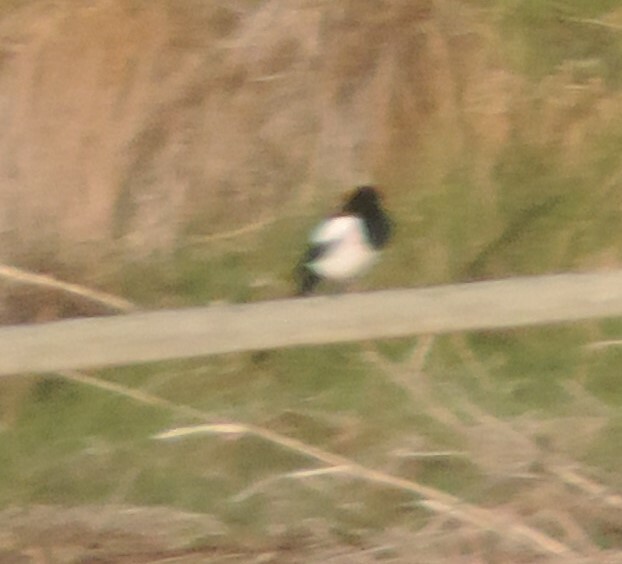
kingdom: Animalia
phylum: Chordata
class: Aves
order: Passeriformes
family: Corvidae
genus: Pica
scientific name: Pica hudsonia
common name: Black-billed magpie
